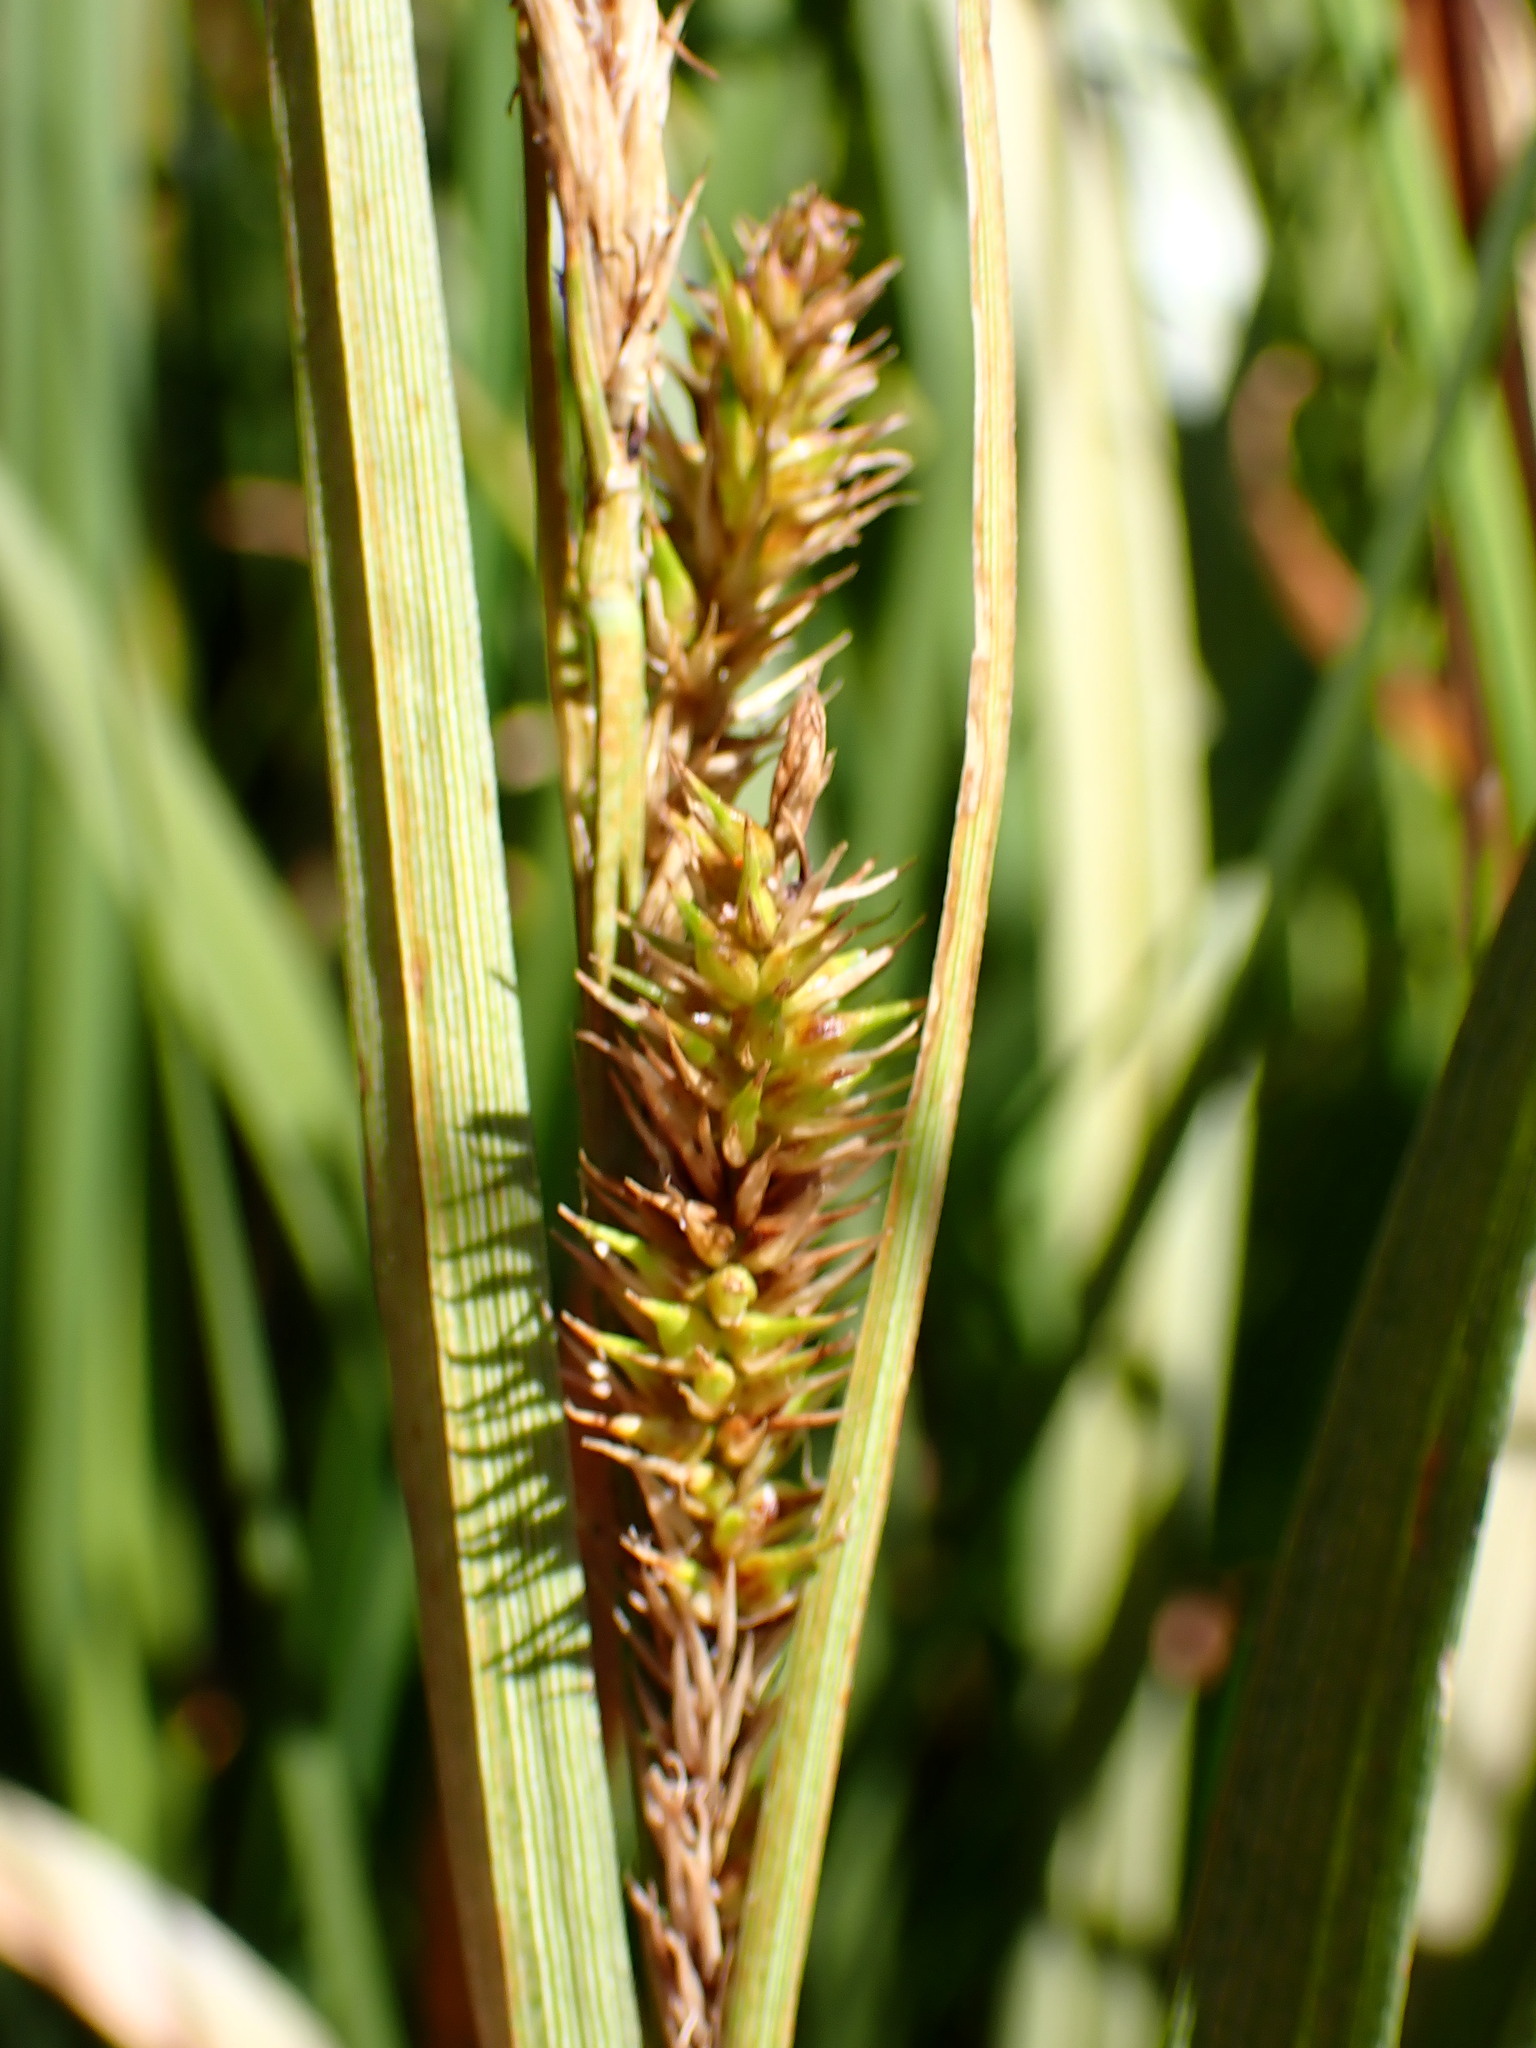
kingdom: Plantae
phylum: Tracheophyta
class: Liliopsida
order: Poales
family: Cyperaceae
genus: Carex
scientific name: Carex utriculata
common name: Beaked sedge
